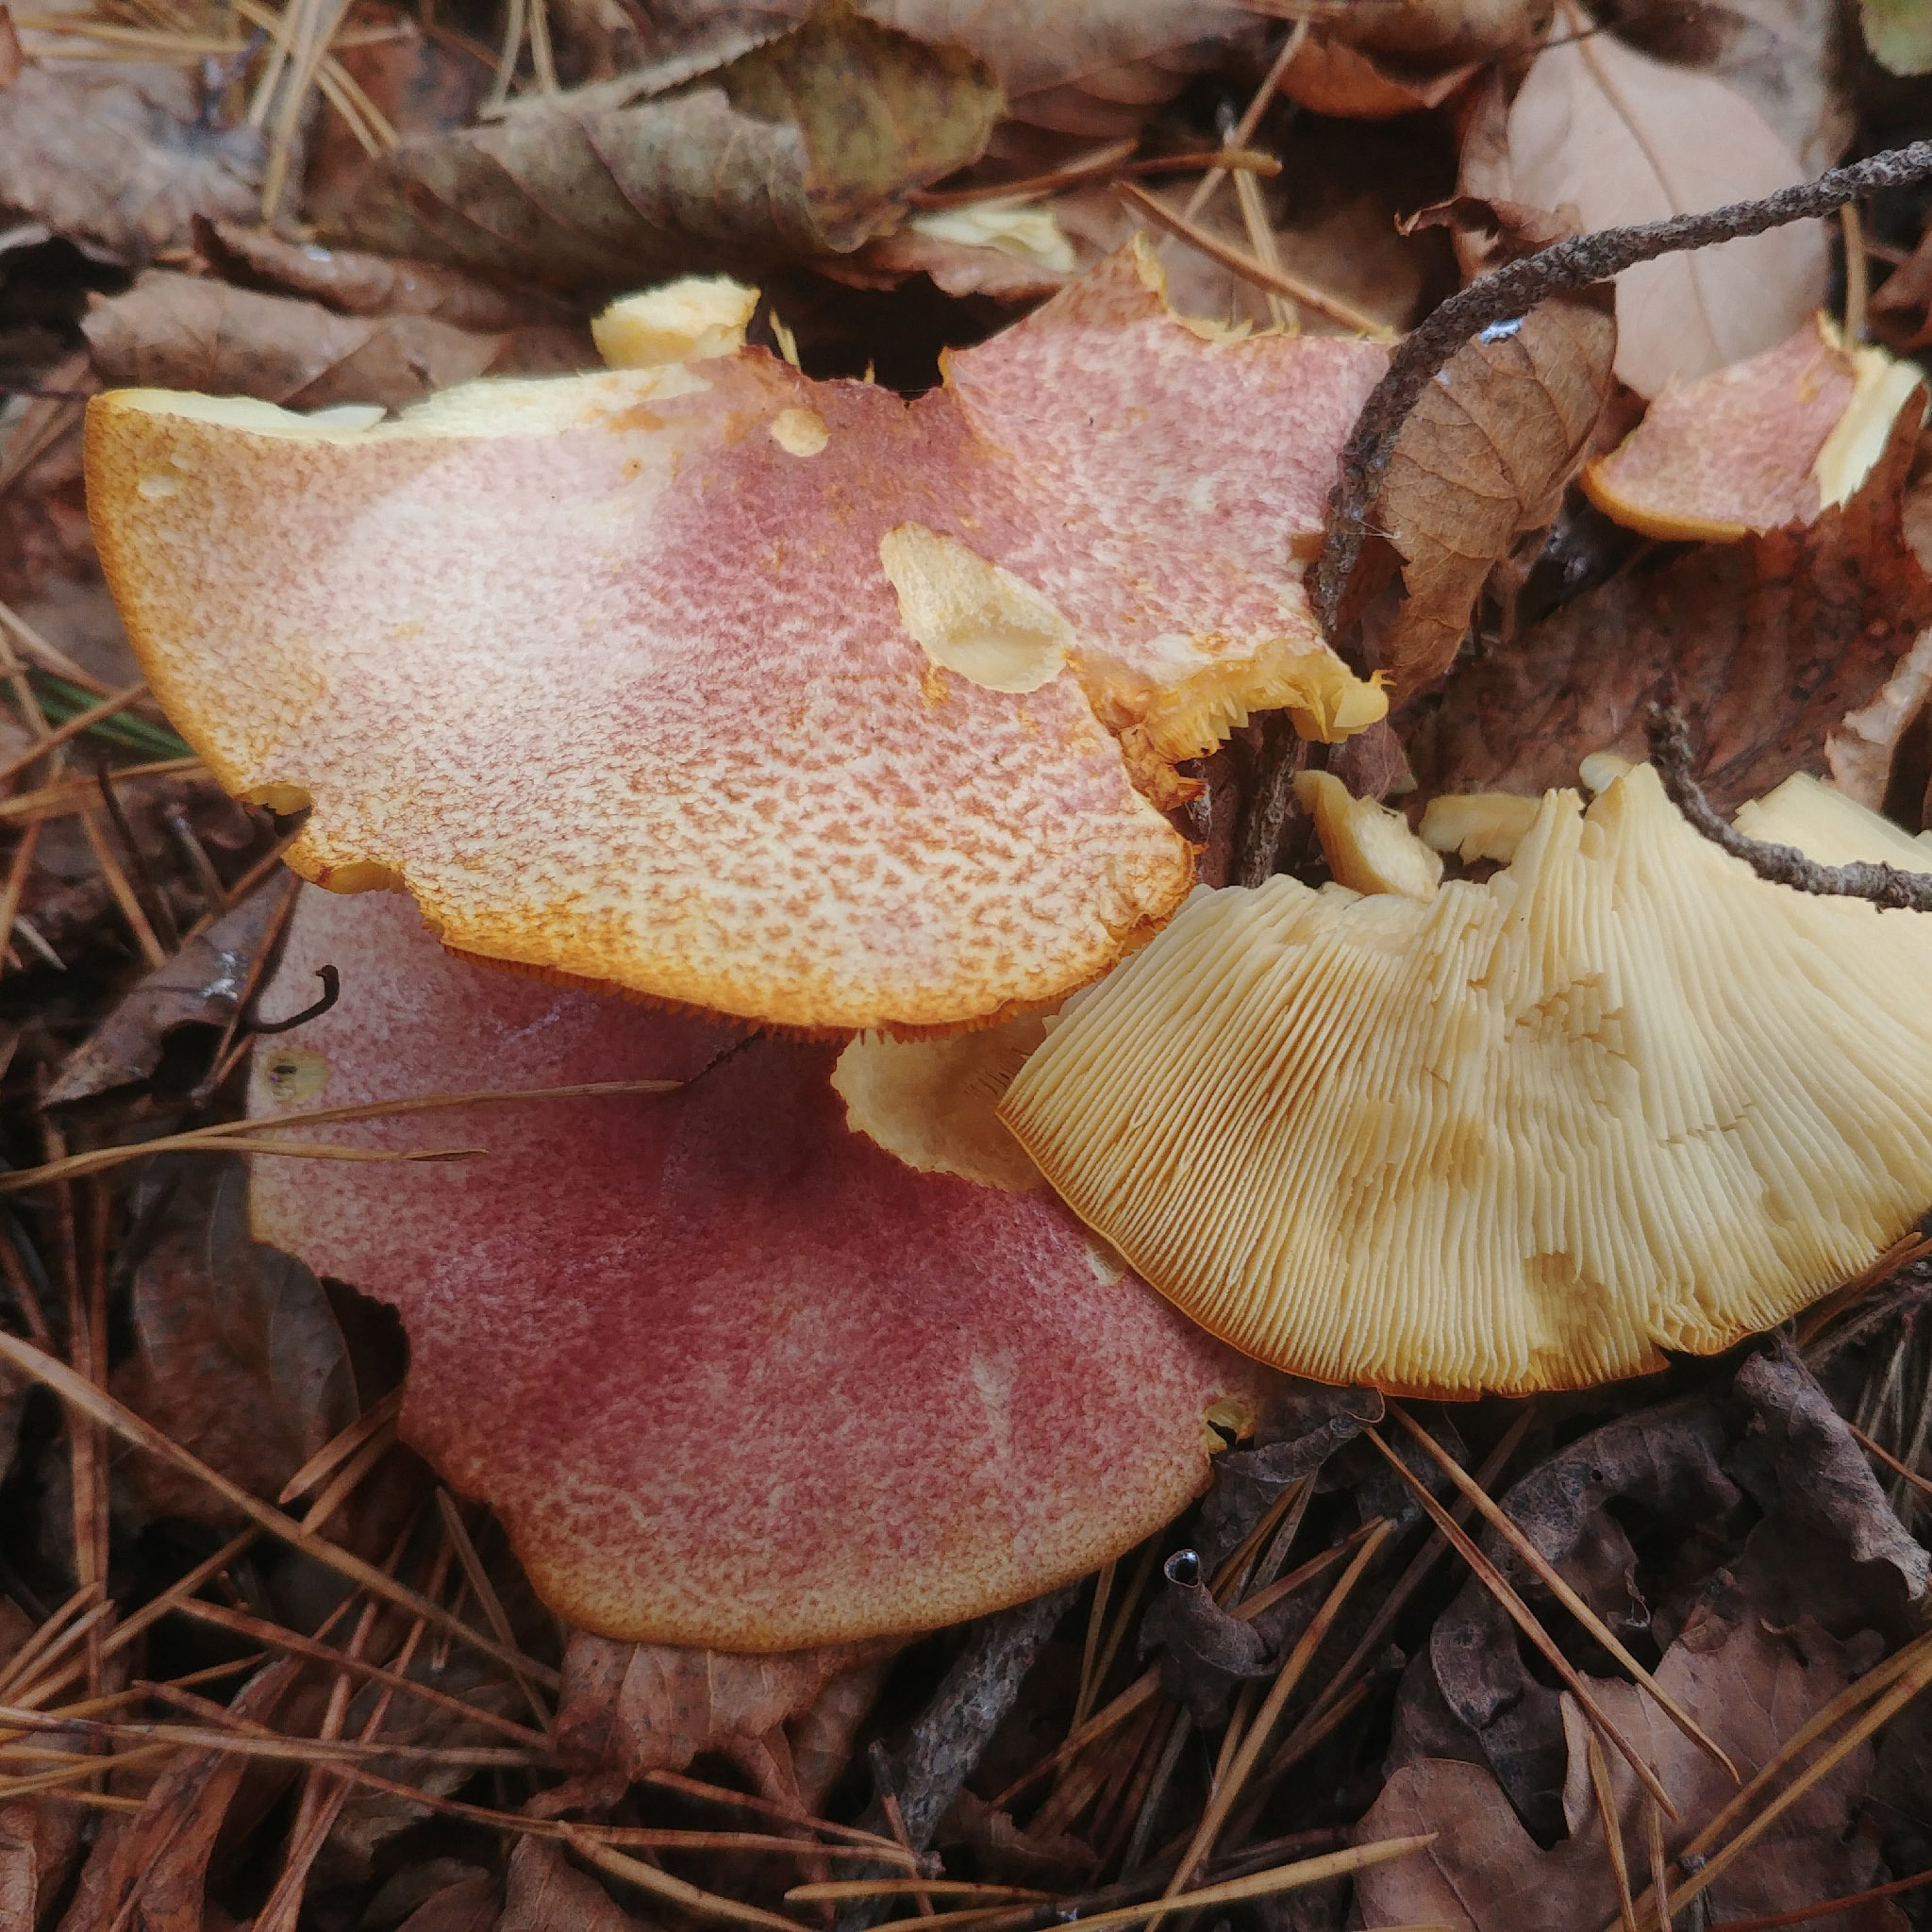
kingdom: Fungi
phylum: Basidiomycota
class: Agaricomycetes
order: Agaricales
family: Tricholomataceae
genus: Tricholomopsis
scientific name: Tricholomopsis rutilans
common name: Plums and custard
